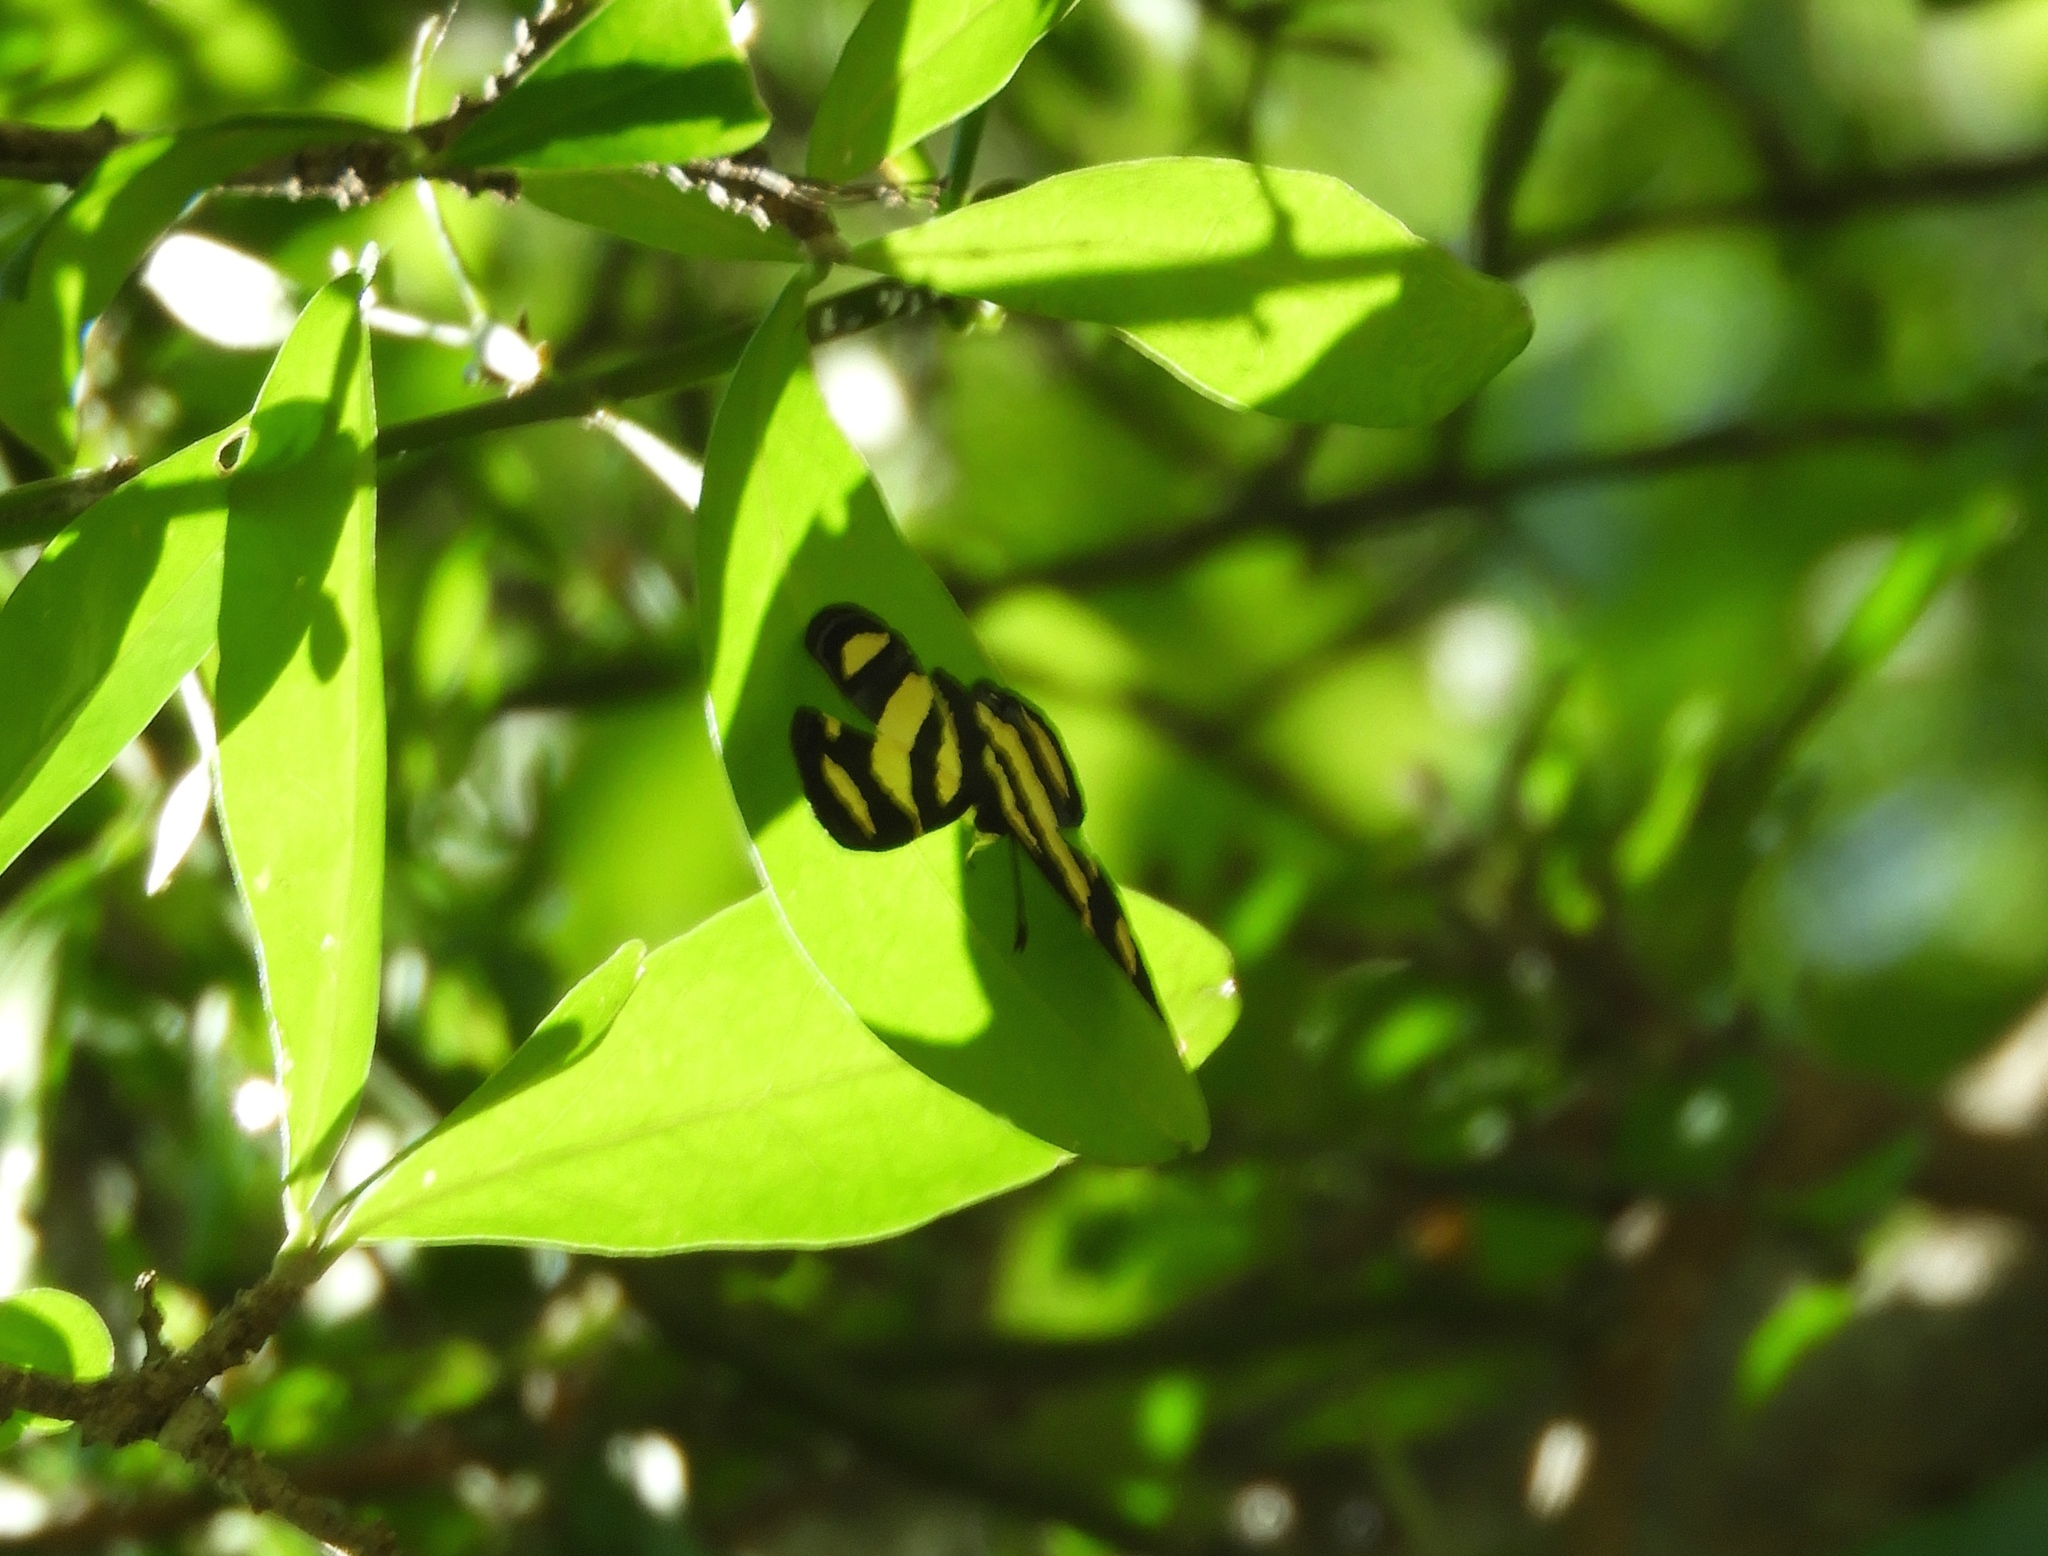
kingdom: Animalia
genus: Baeotis
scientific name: Baeotis zonata
